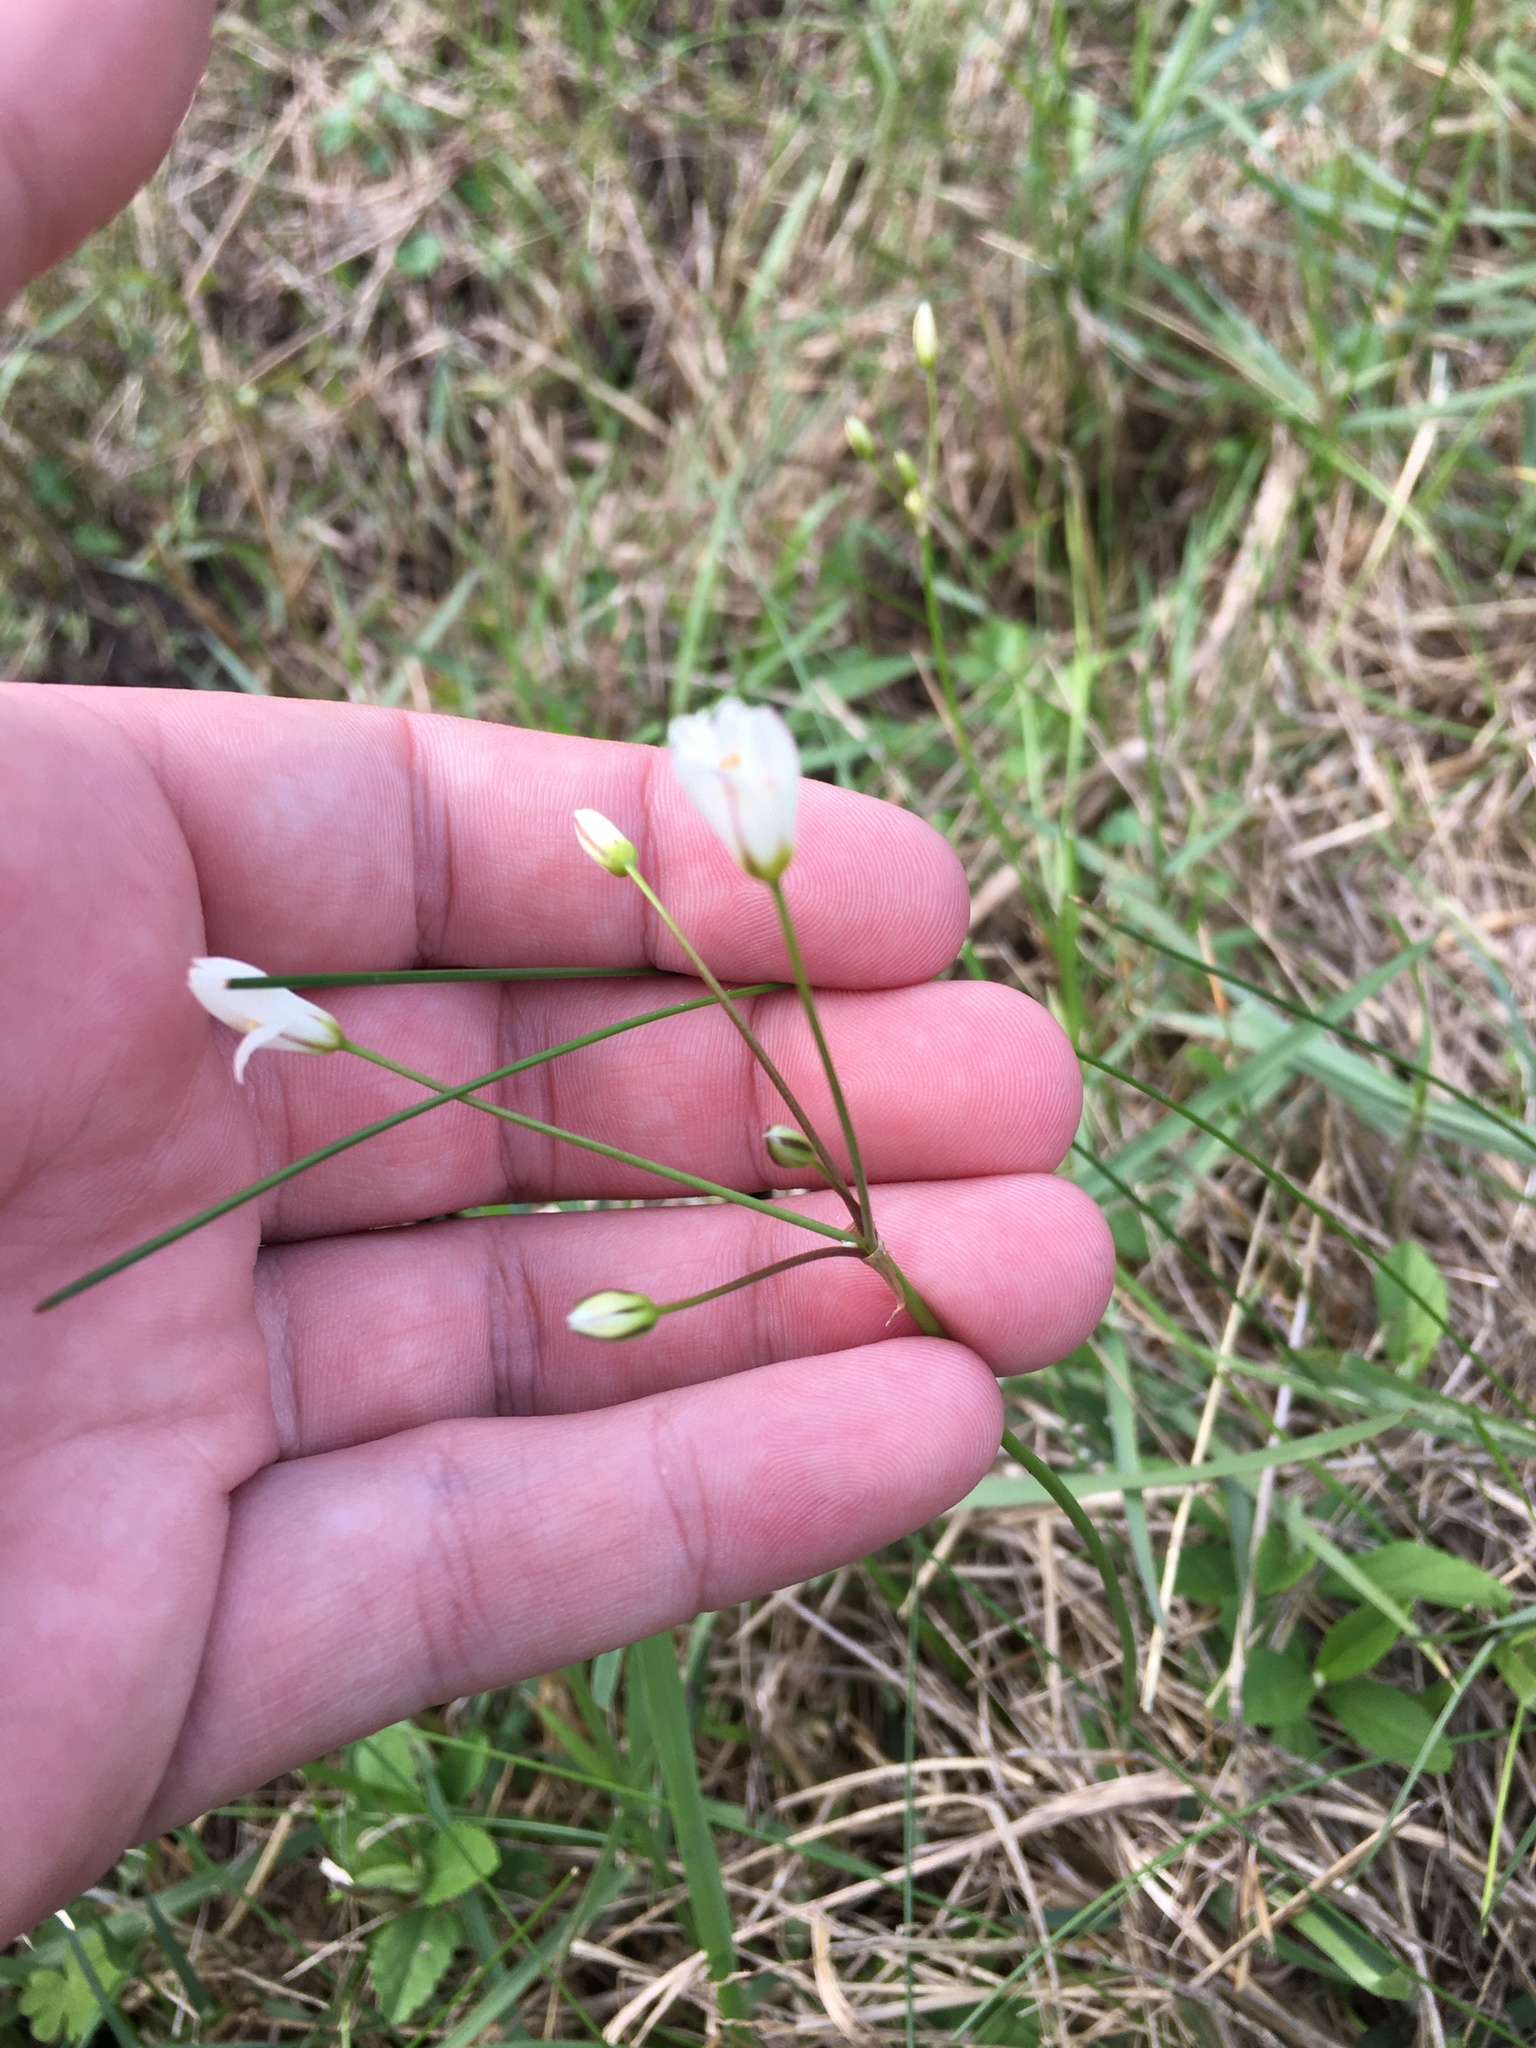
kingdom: Plantae
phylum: Tracheophyta
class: Liliopsida
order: Asparagales
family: Amaryllidaceae
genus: Nothoscordum
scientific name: Nothoscordum bivalve
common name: Crow-poison
